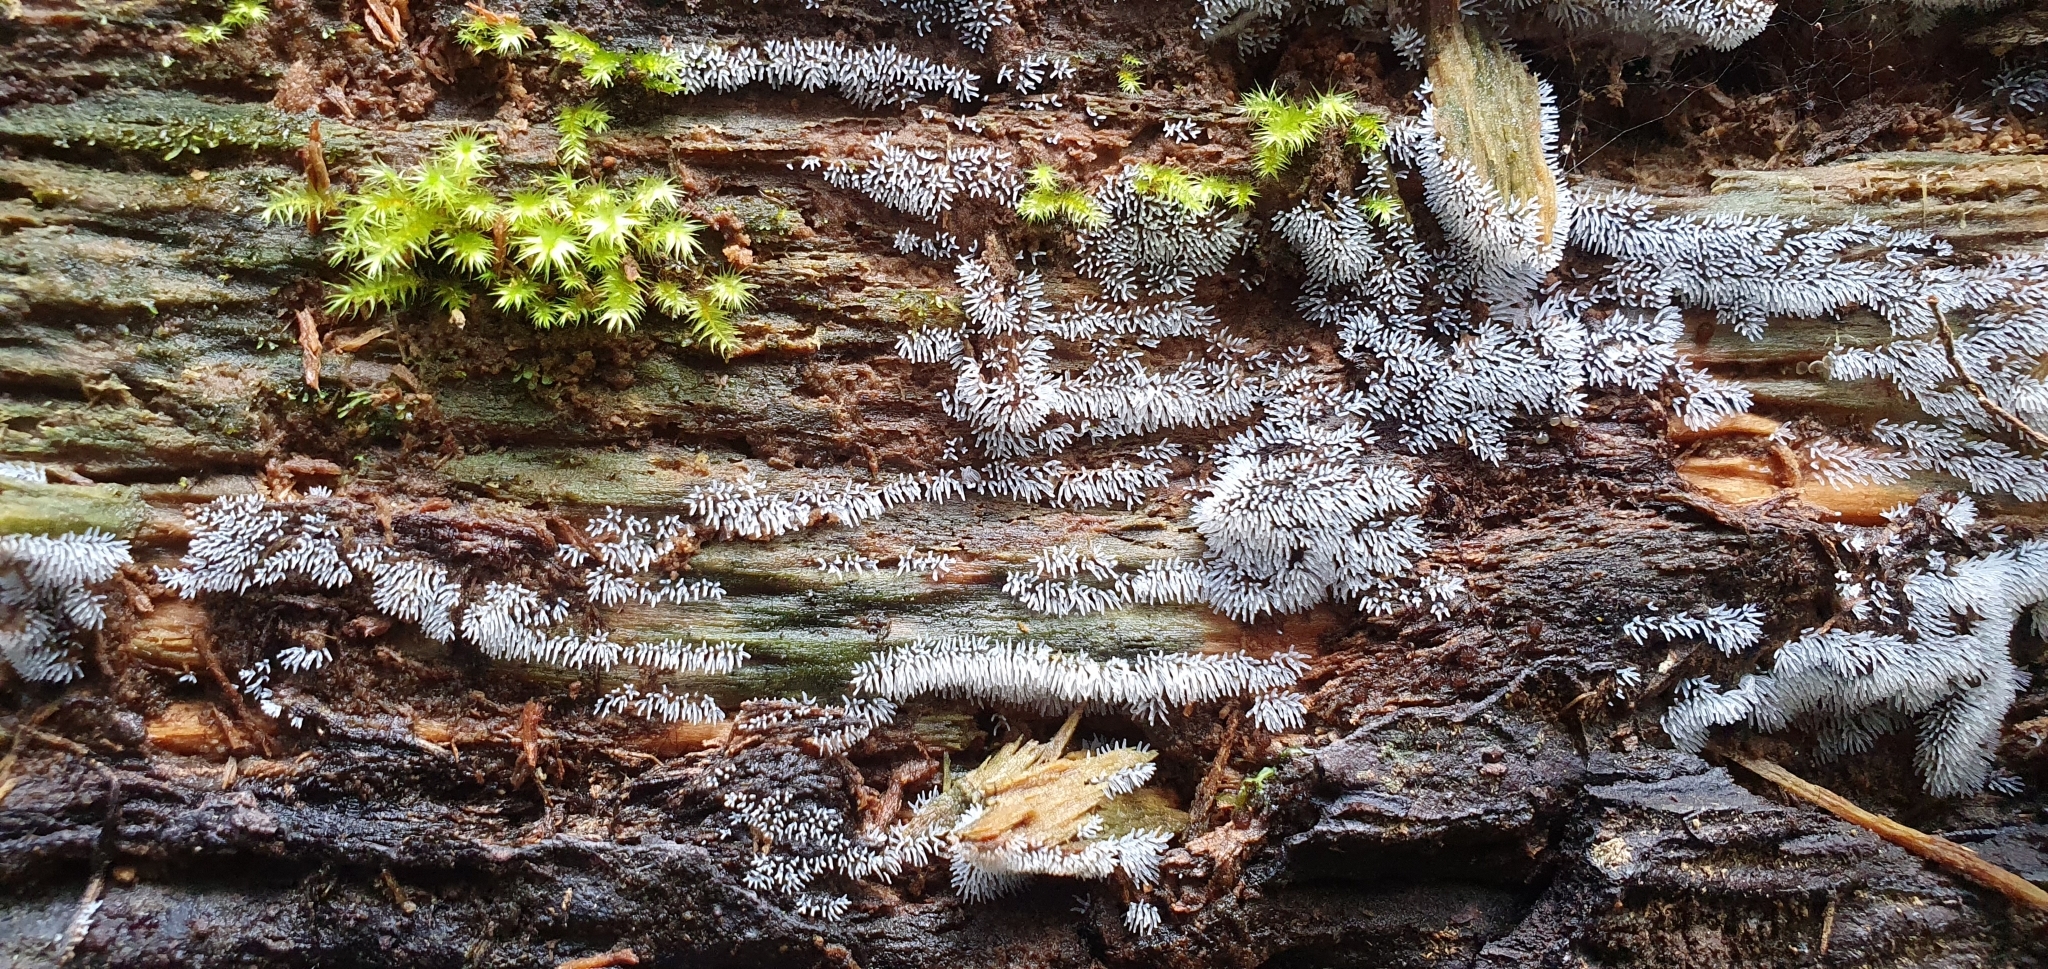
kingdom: Protozoa
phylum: Mycetozoa
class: Protosteliomycetes
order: Ceratiomyxales
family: Ceratiomyxaceae
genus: Ceratiomyxa
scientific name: Ceratiomyxa fruticulosa
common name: Honeycomb coral slime mold
